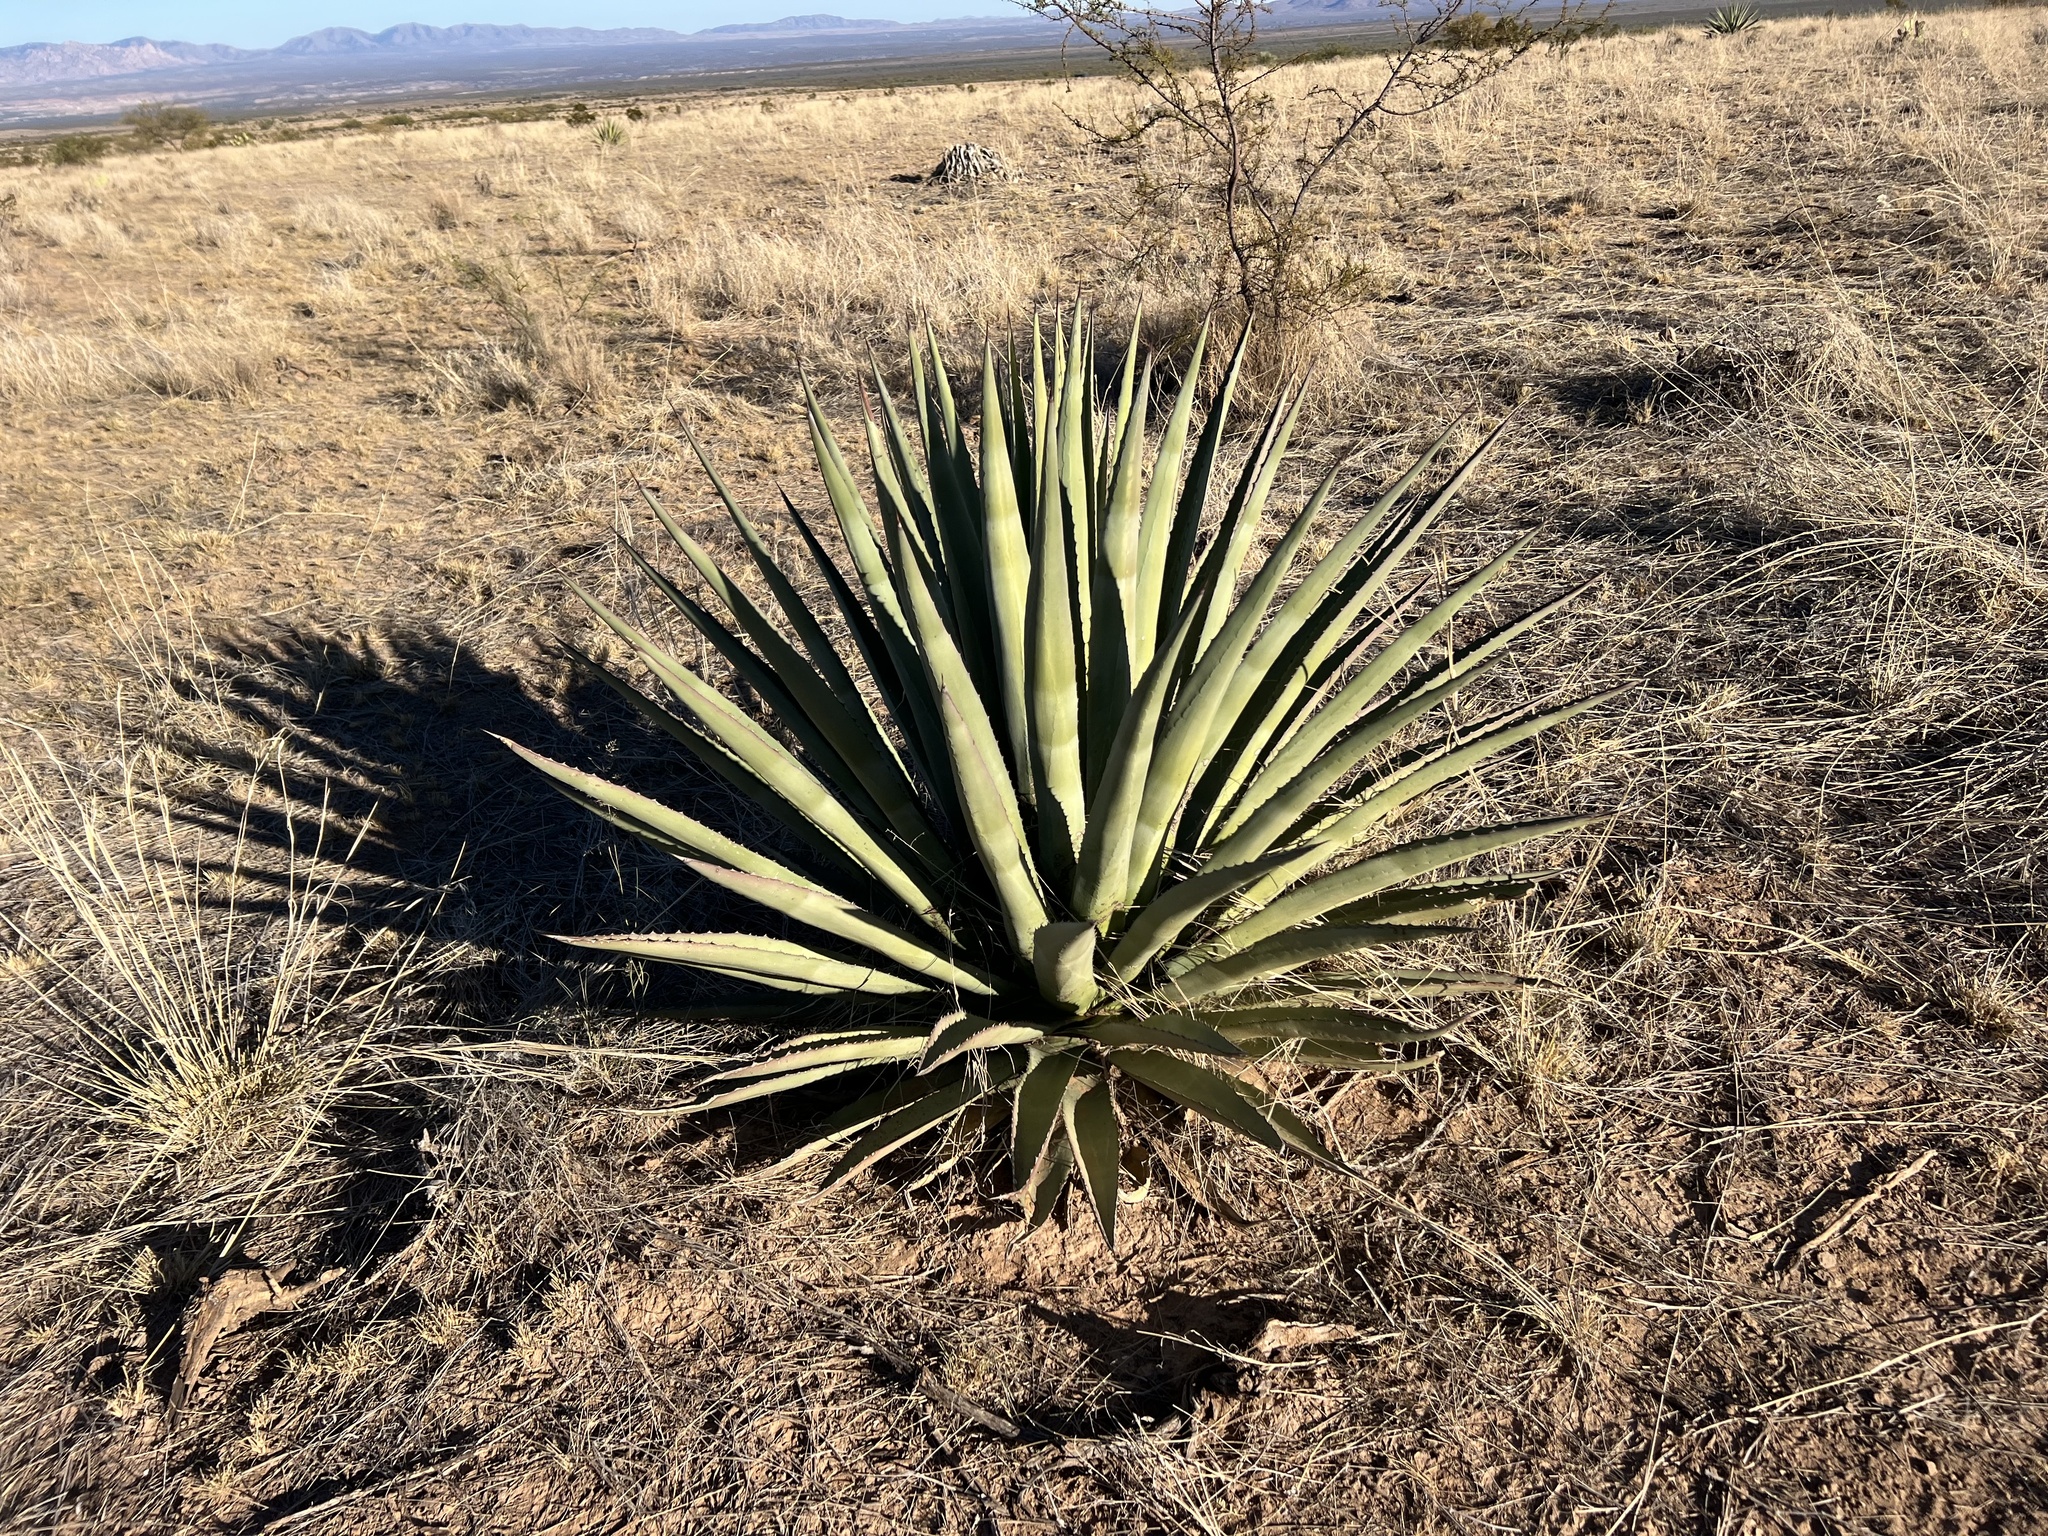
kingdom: Plantae
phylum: Tracheophyta
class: Liliopsida
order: Asparagales
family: Asparagaceae
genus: Agave
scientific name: Agave palmeri
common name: Palmer agave
